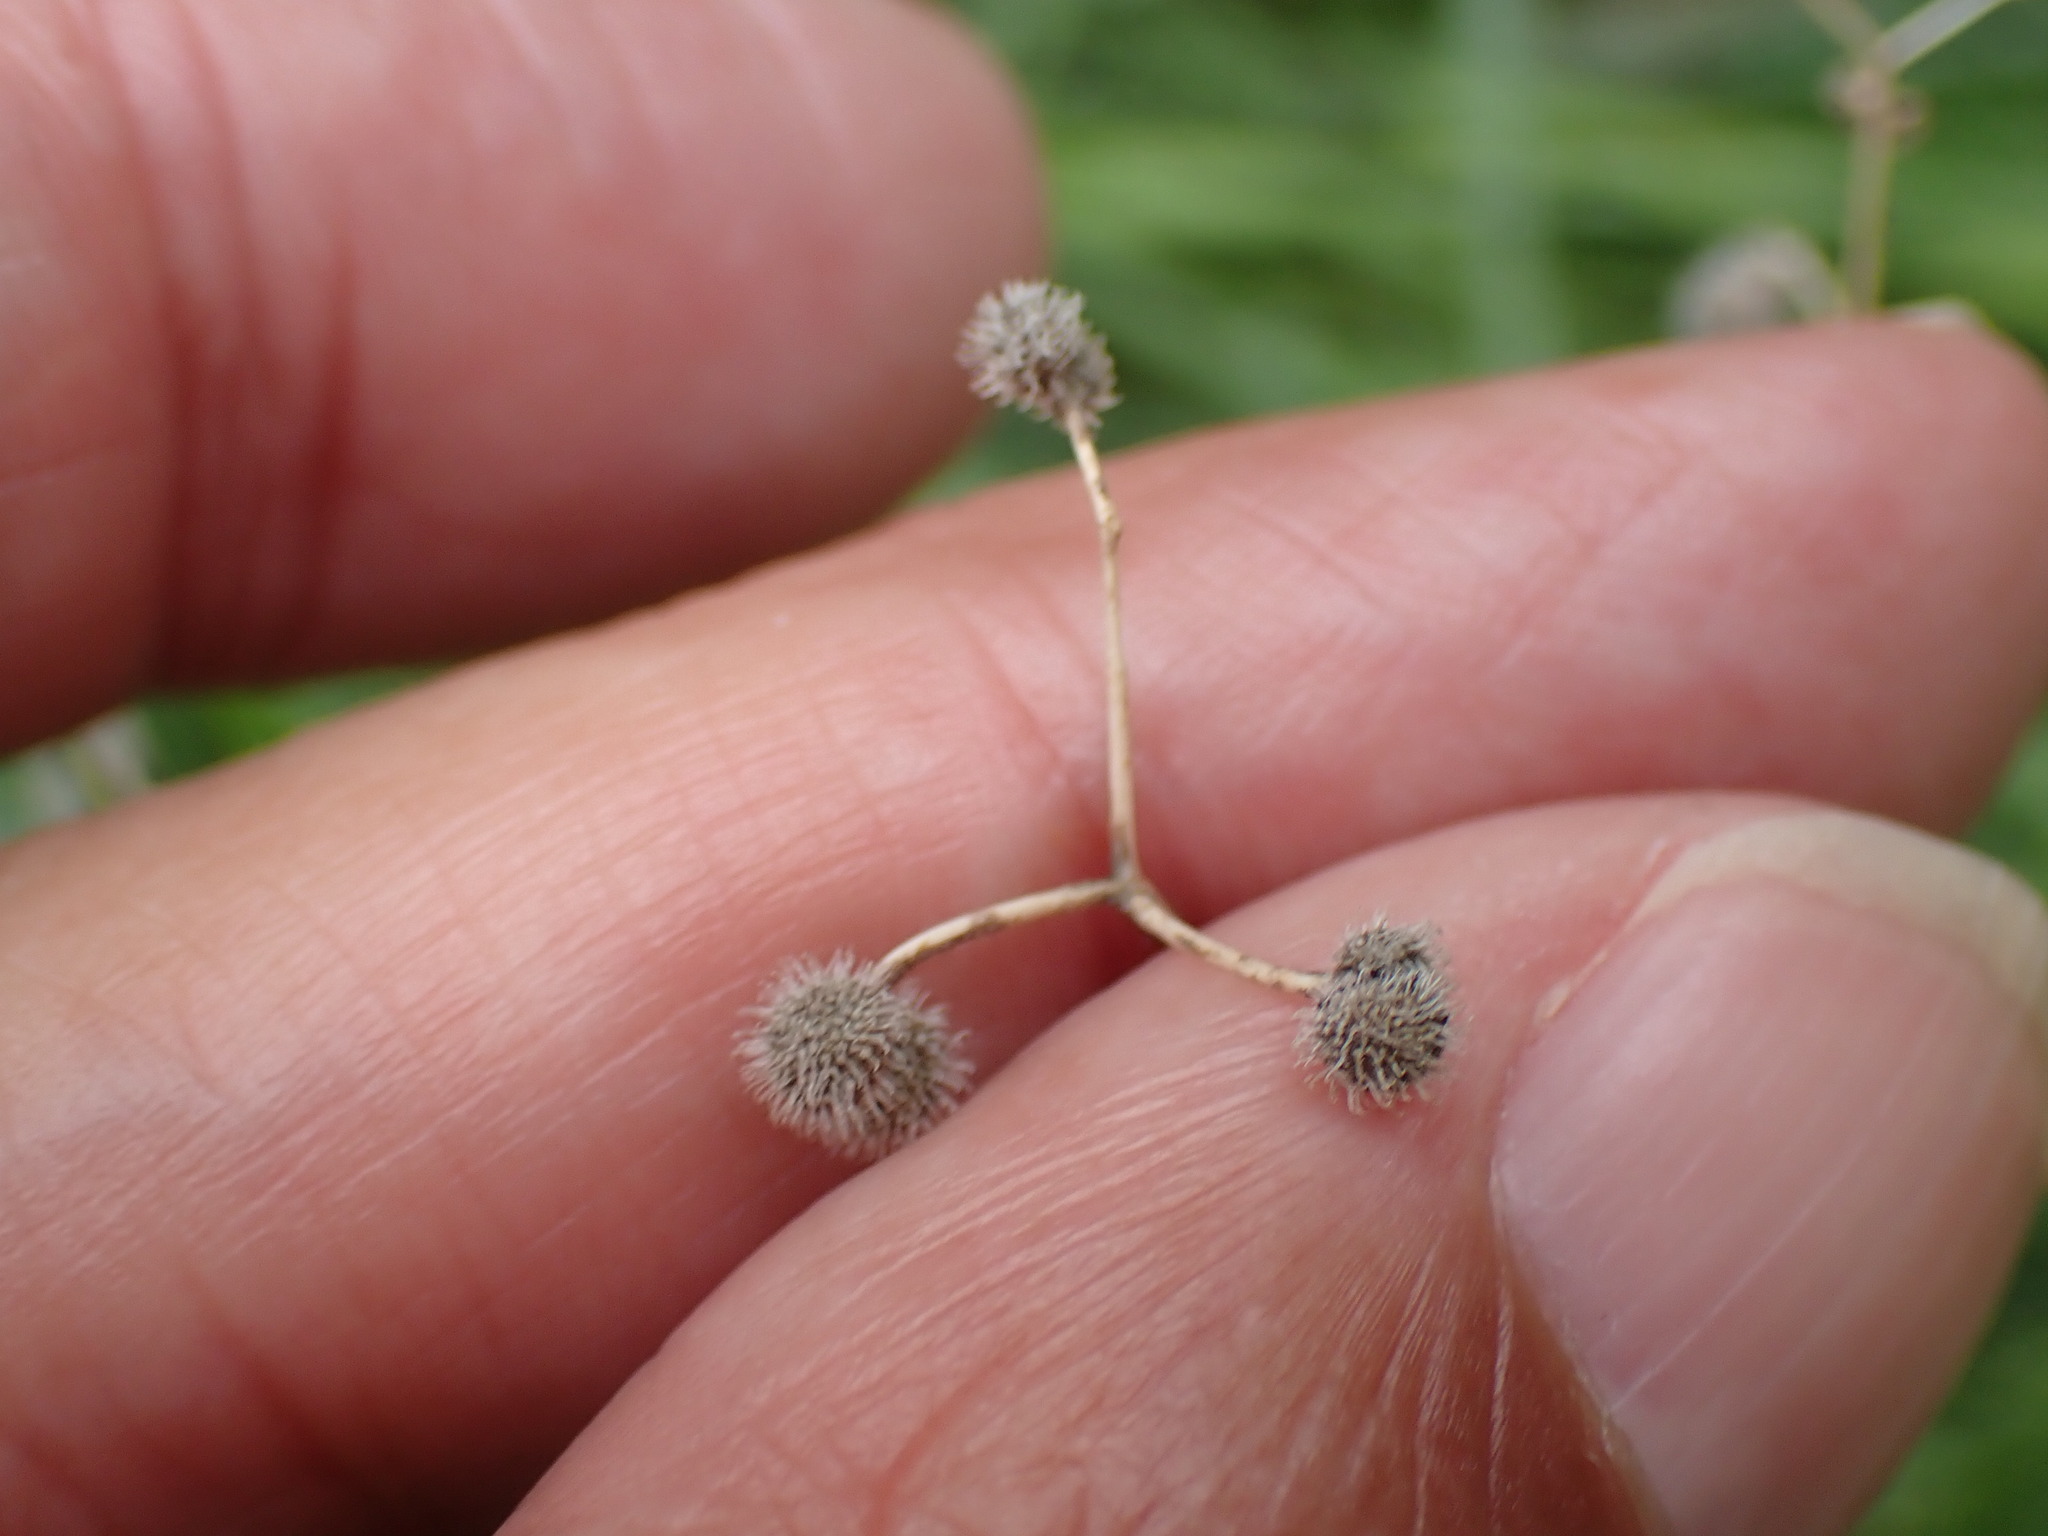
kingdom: Plantae
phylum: Tracheophyta
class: Magnoliopsida
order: Gentianales
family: Rubiaceae
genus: Galium
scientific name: Galium aparine
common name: Cleavers
